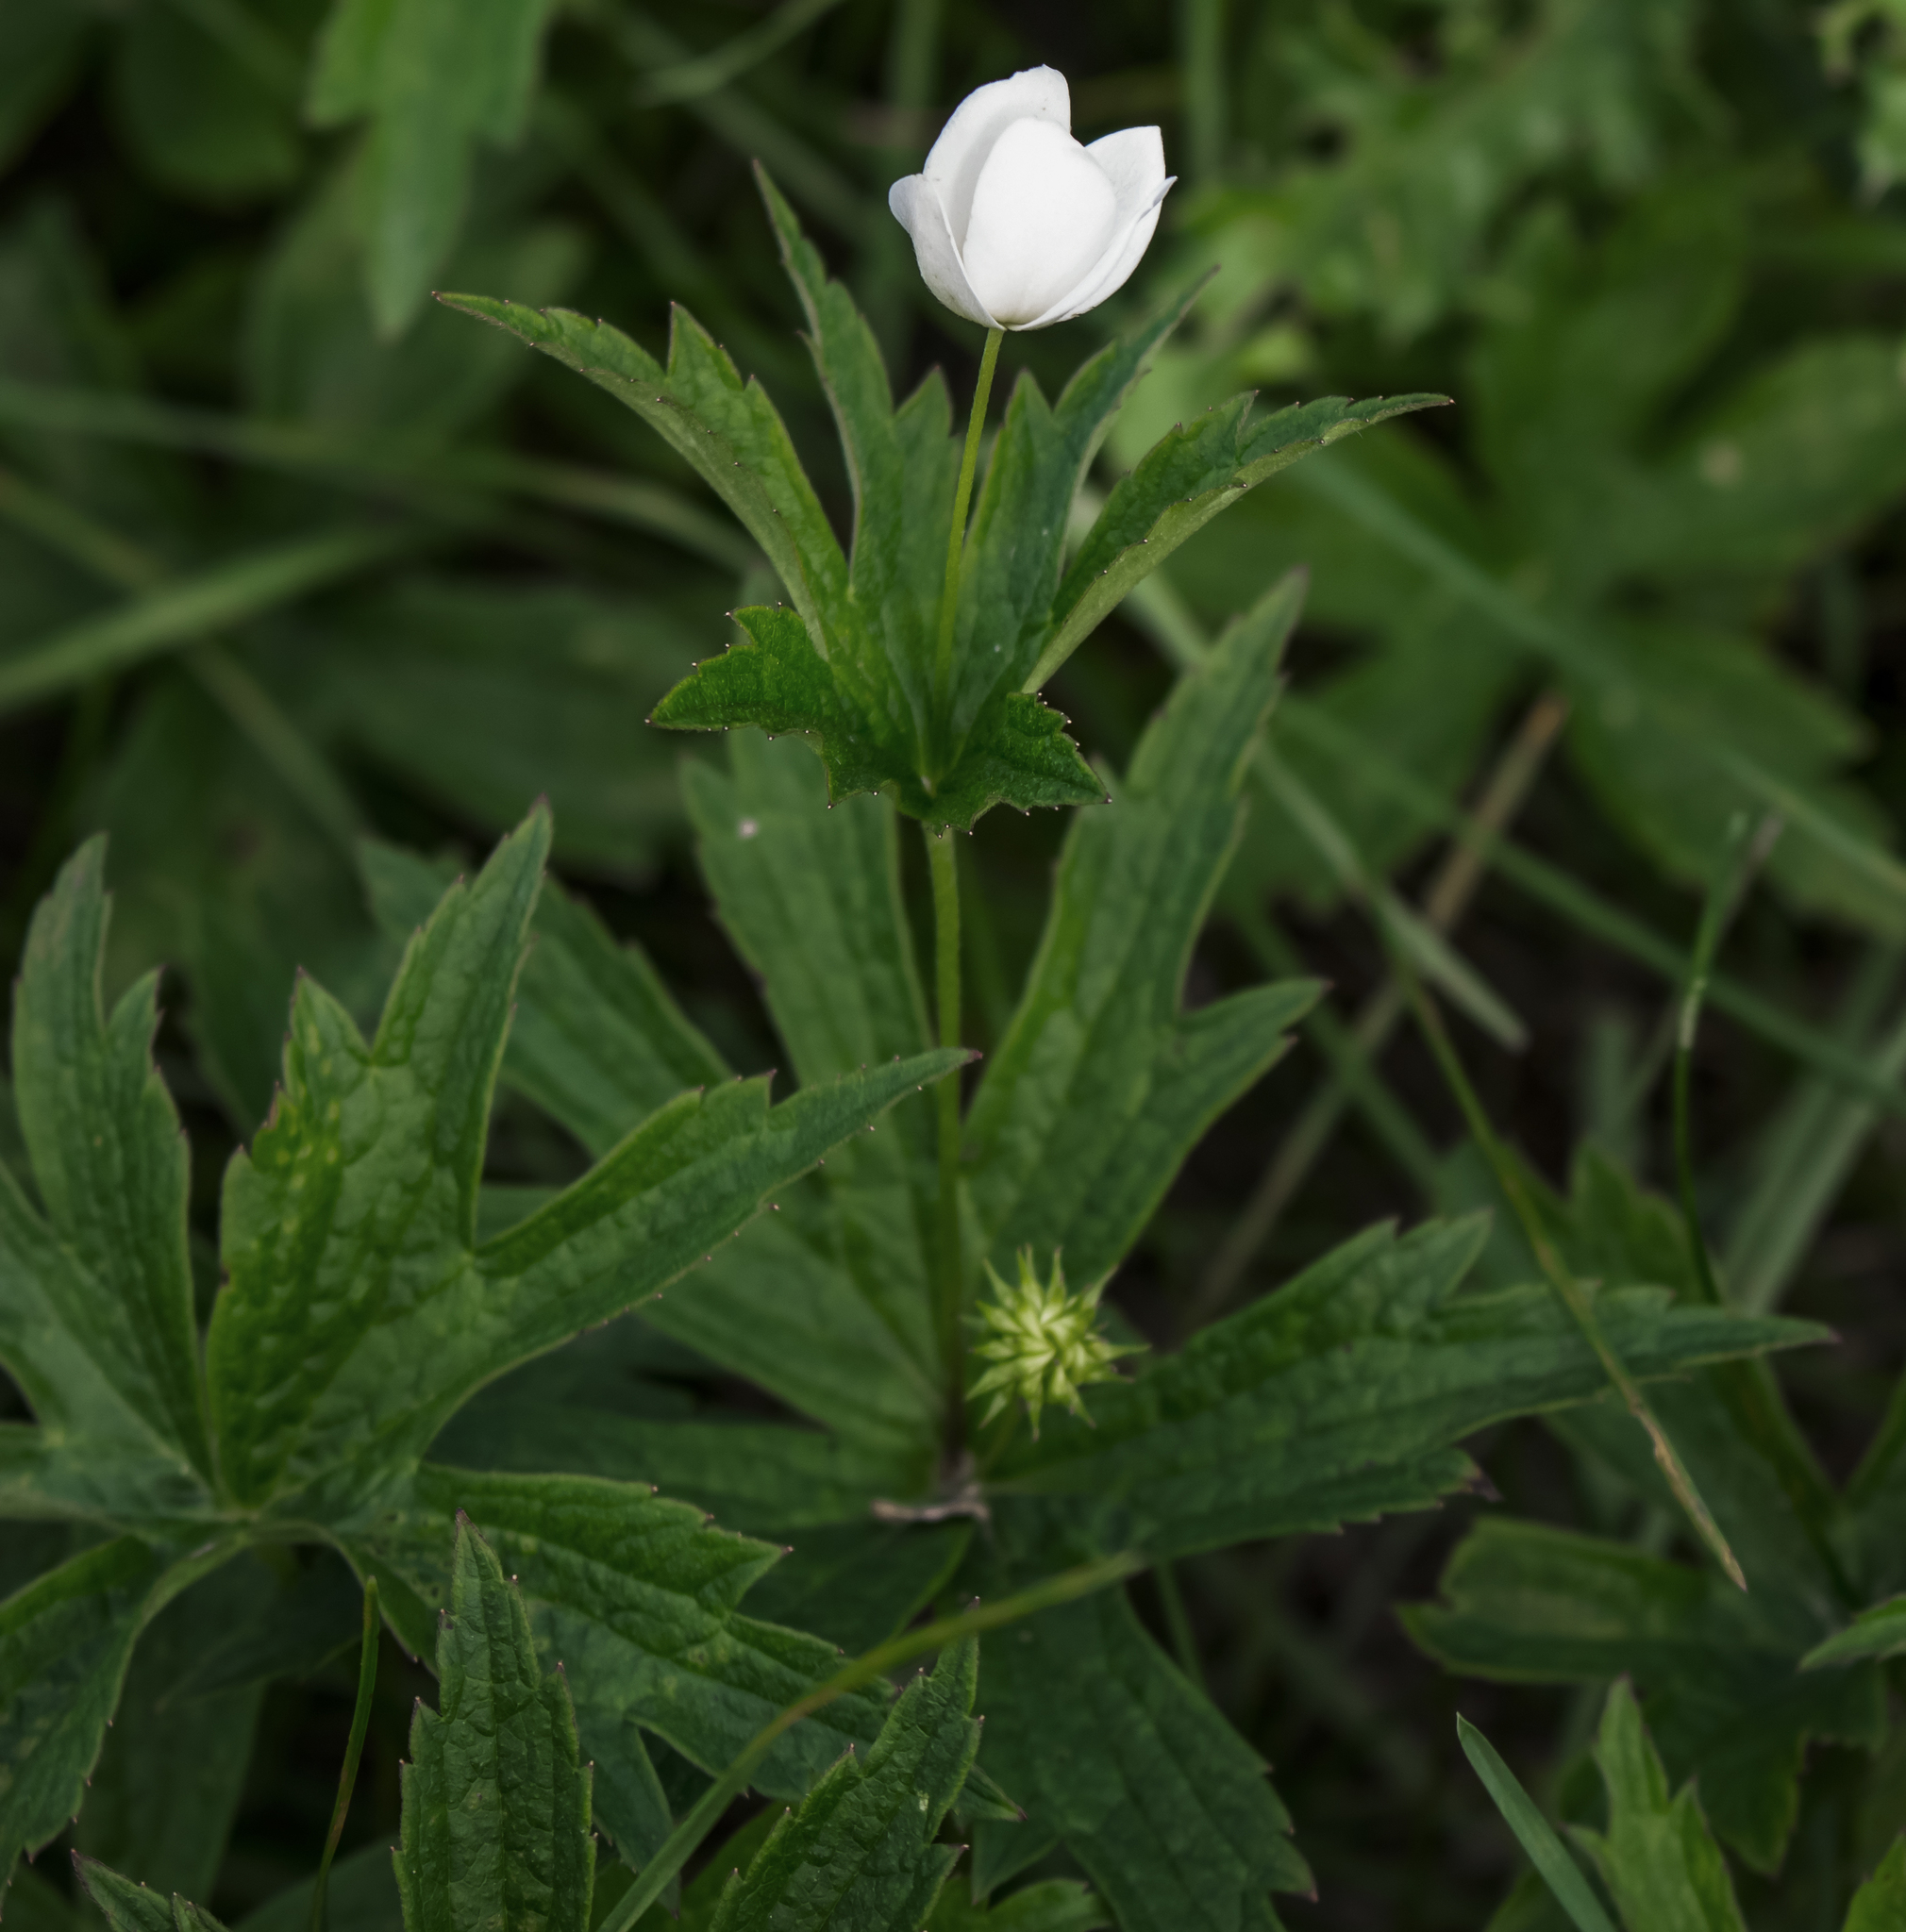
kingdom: Plantae
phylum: Tracheophyta
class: Magnoliopsida
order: Ranunculales
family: Ranunculaceae
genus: Anemonastrum
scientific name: Anemonastrum canadense
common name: Canada anemone
